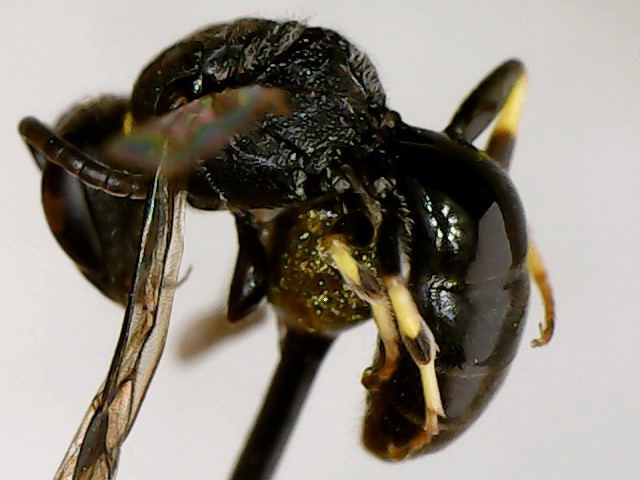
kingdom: Animalia
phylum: Arthropoda
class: Insecta
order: Hymenoptera
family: Colletidae
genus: Hylaeus
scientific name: Hylaeus modestus
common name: Yellow-faced bee
